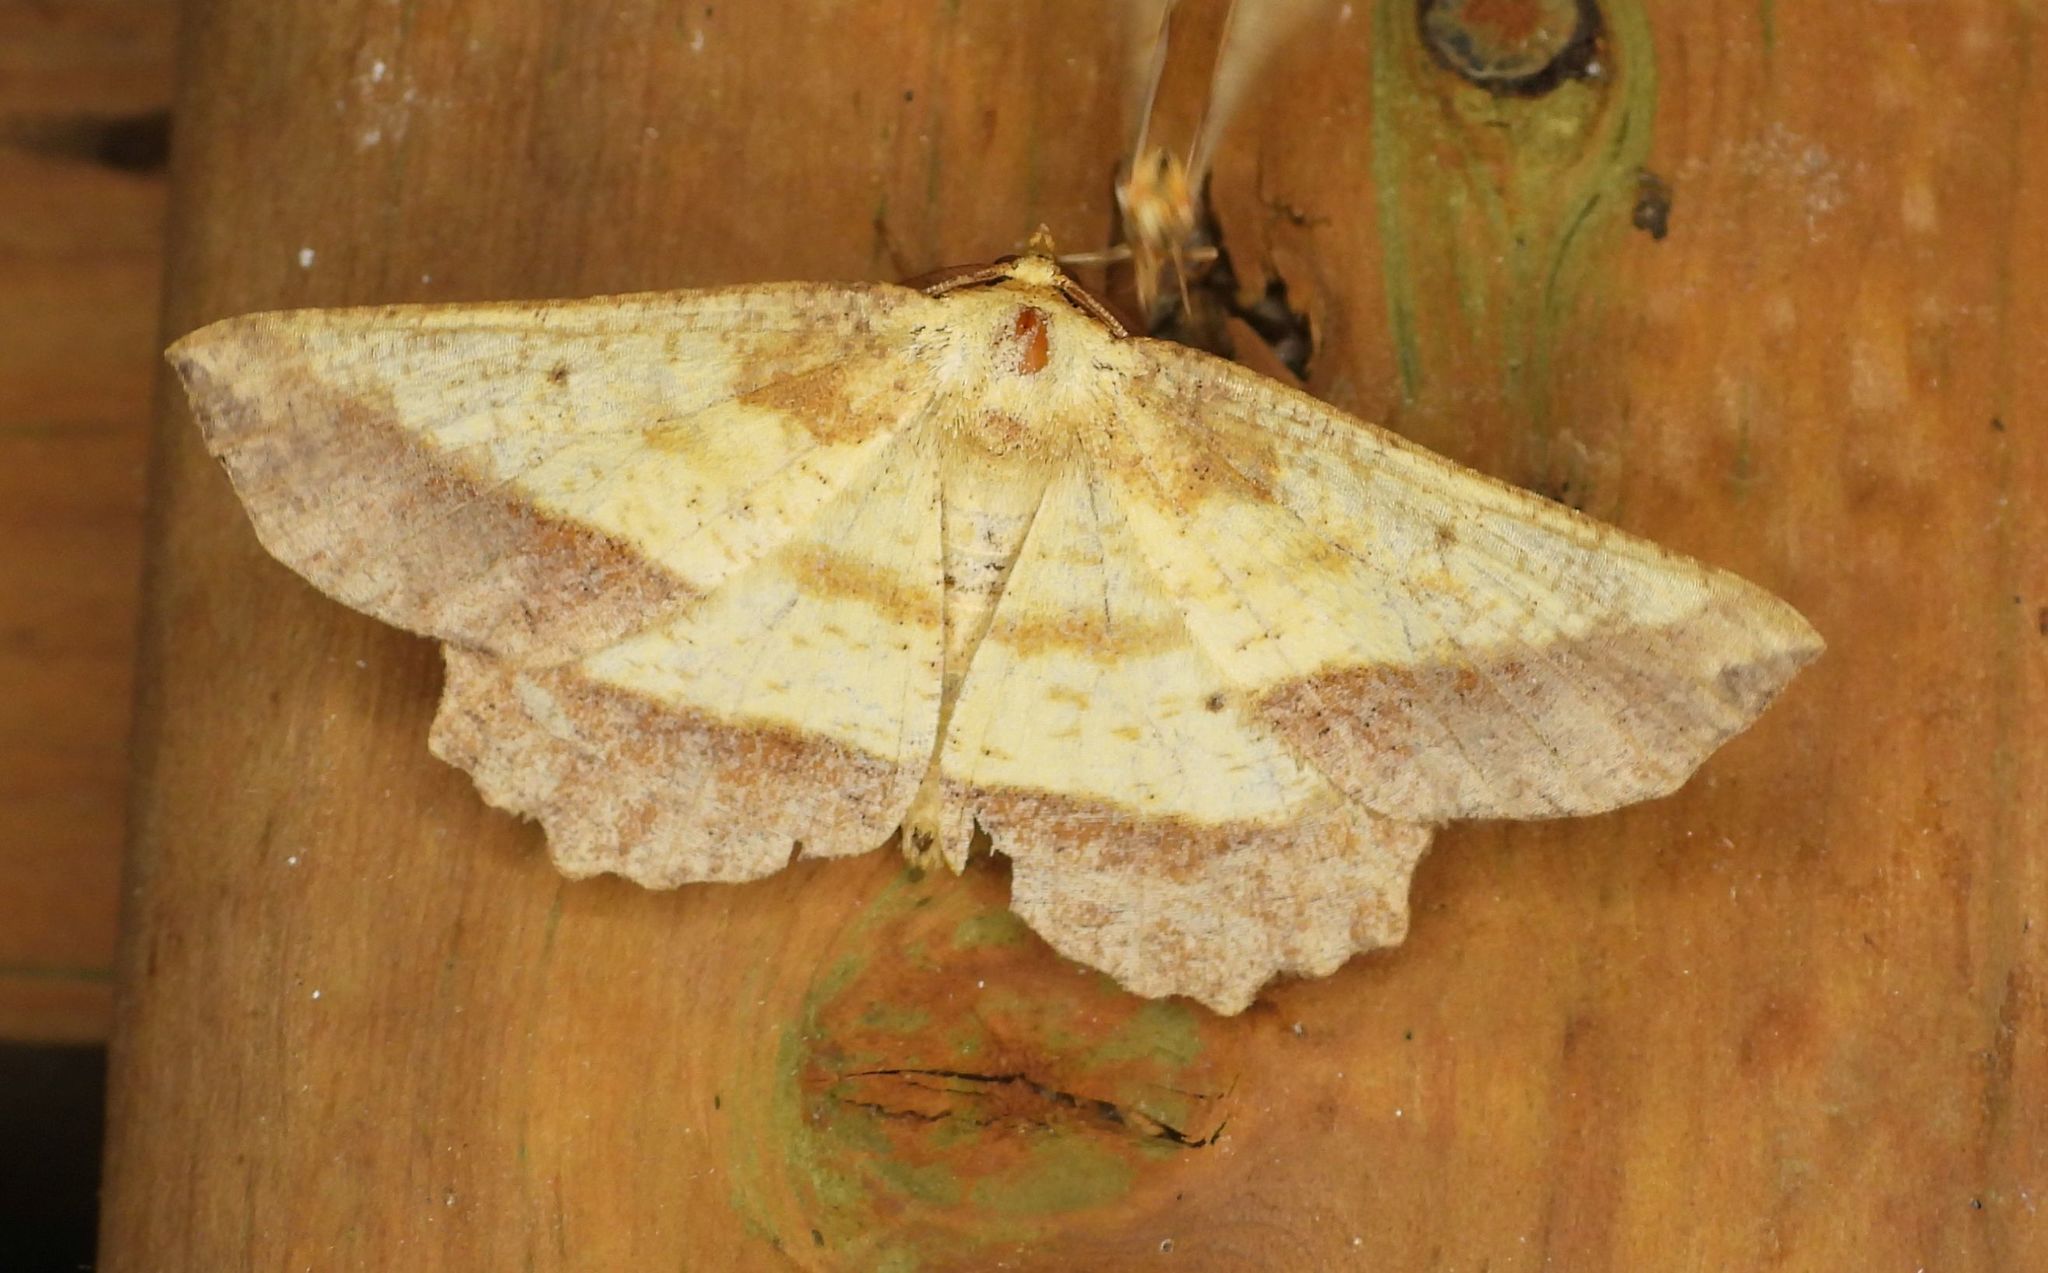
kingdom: Animalia
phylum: Arthropoda
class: Insecta
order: Lepidoptera
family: Geometridae
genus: Euchlaena
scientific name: Euchlaena serrata
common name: Saw wing
